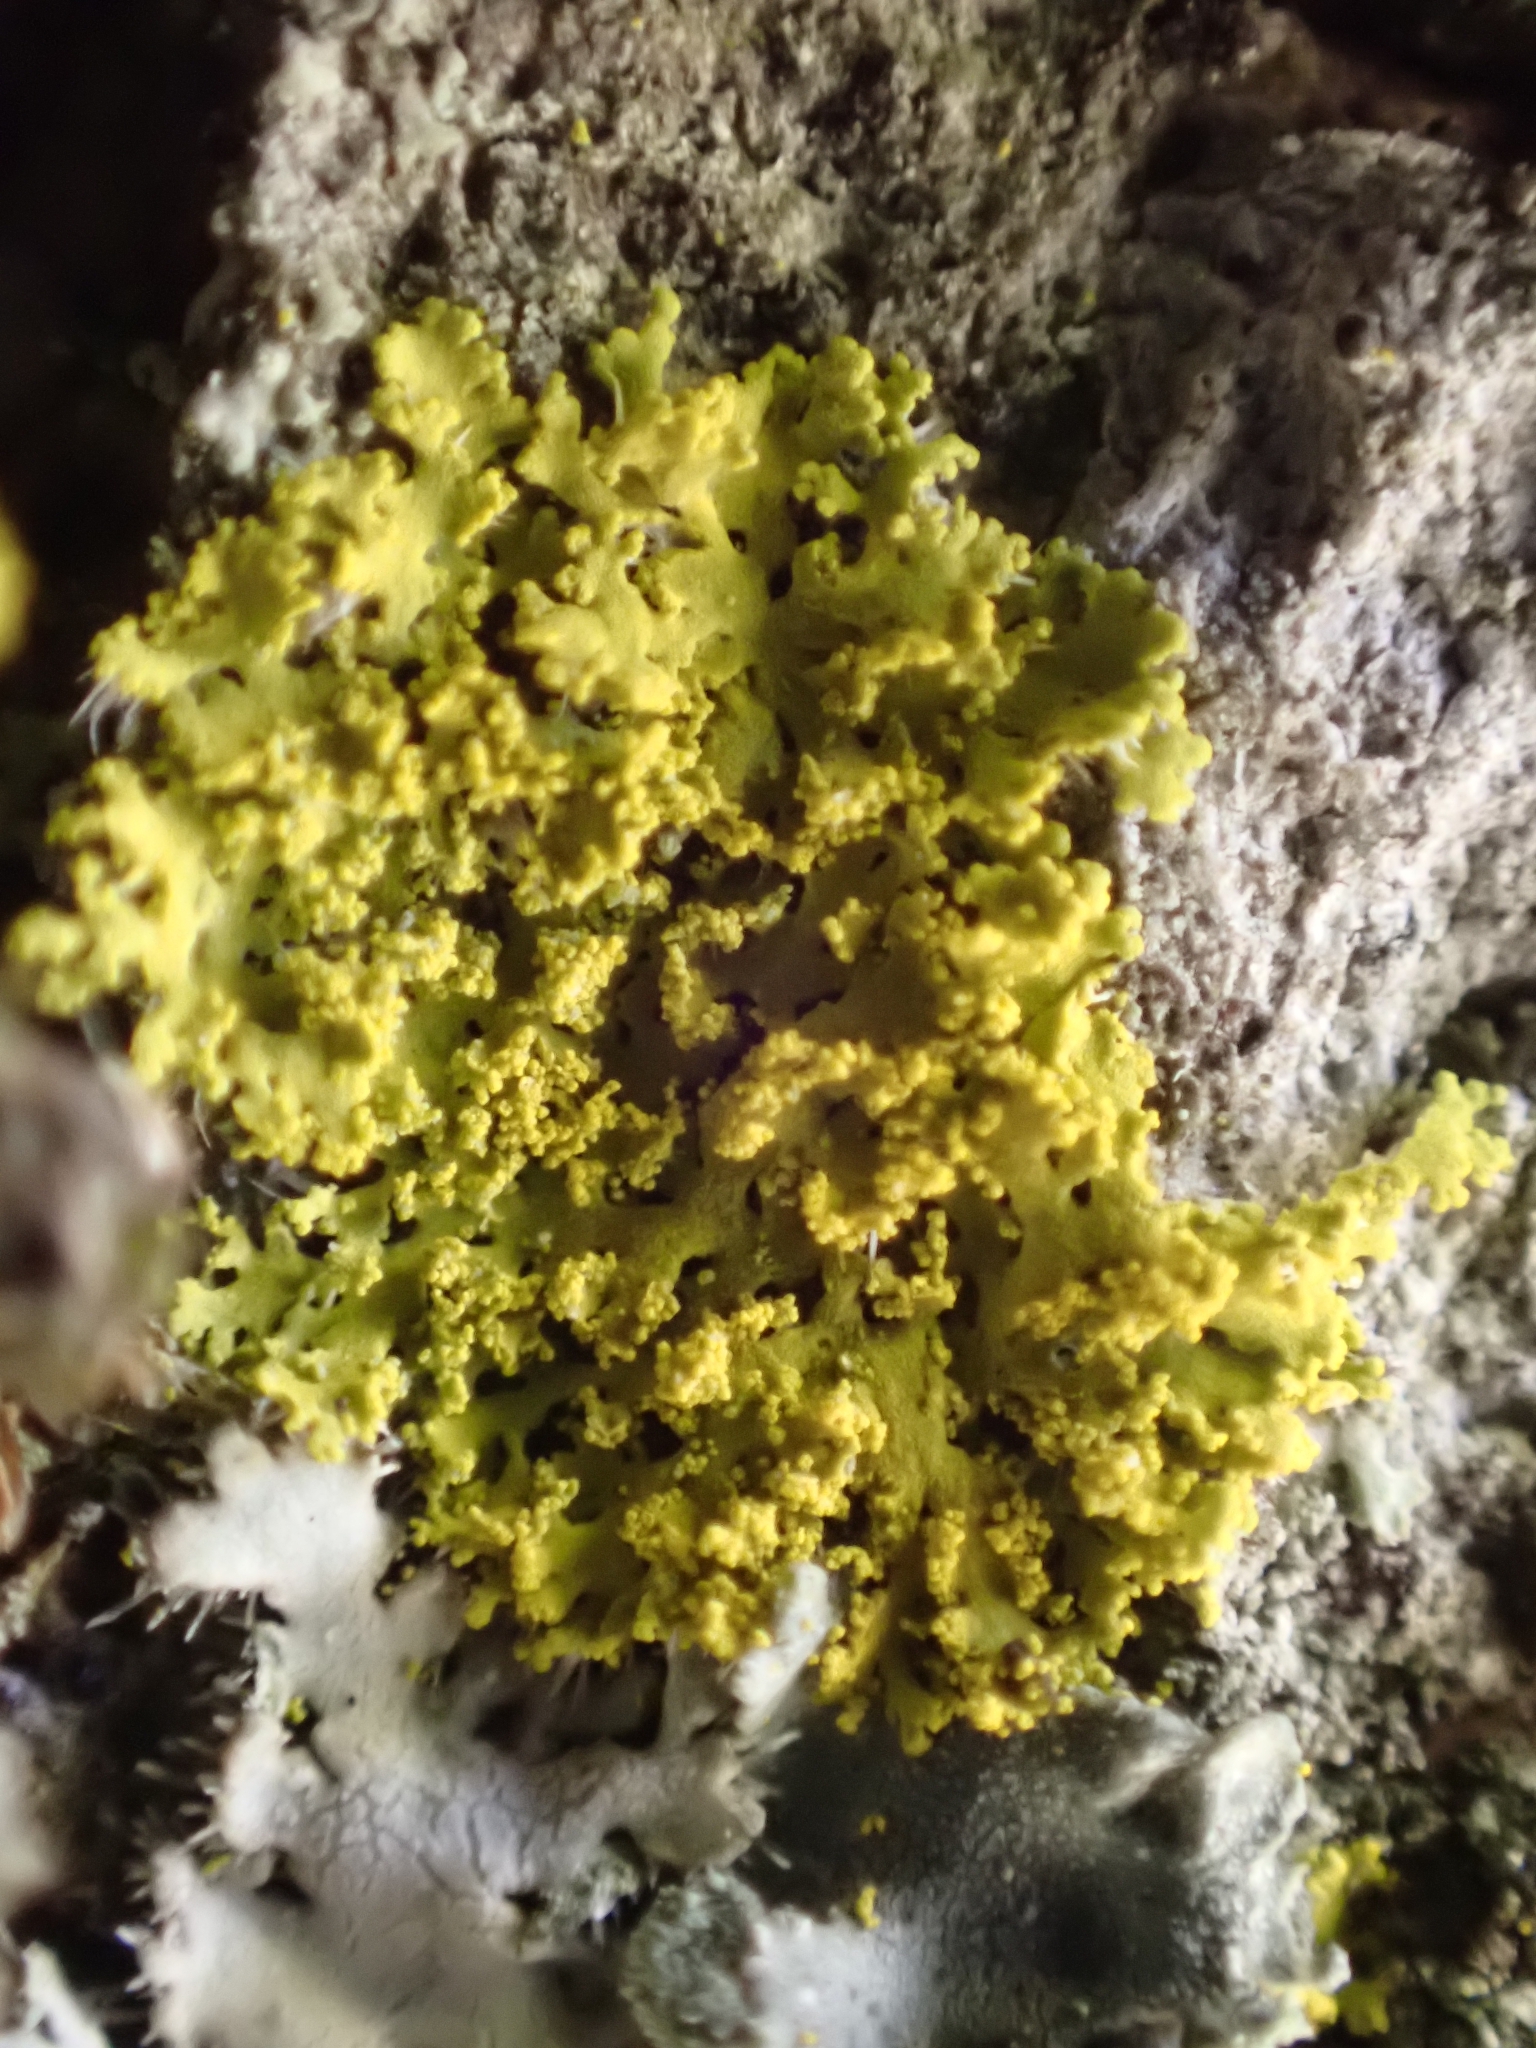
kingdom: Fungi
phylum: Ascomycota
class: Candelariomycetes
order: Candelariales
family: Candelariaceae
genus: Candelaria
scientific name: Candelaria concolor
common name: Candleflame lichen
